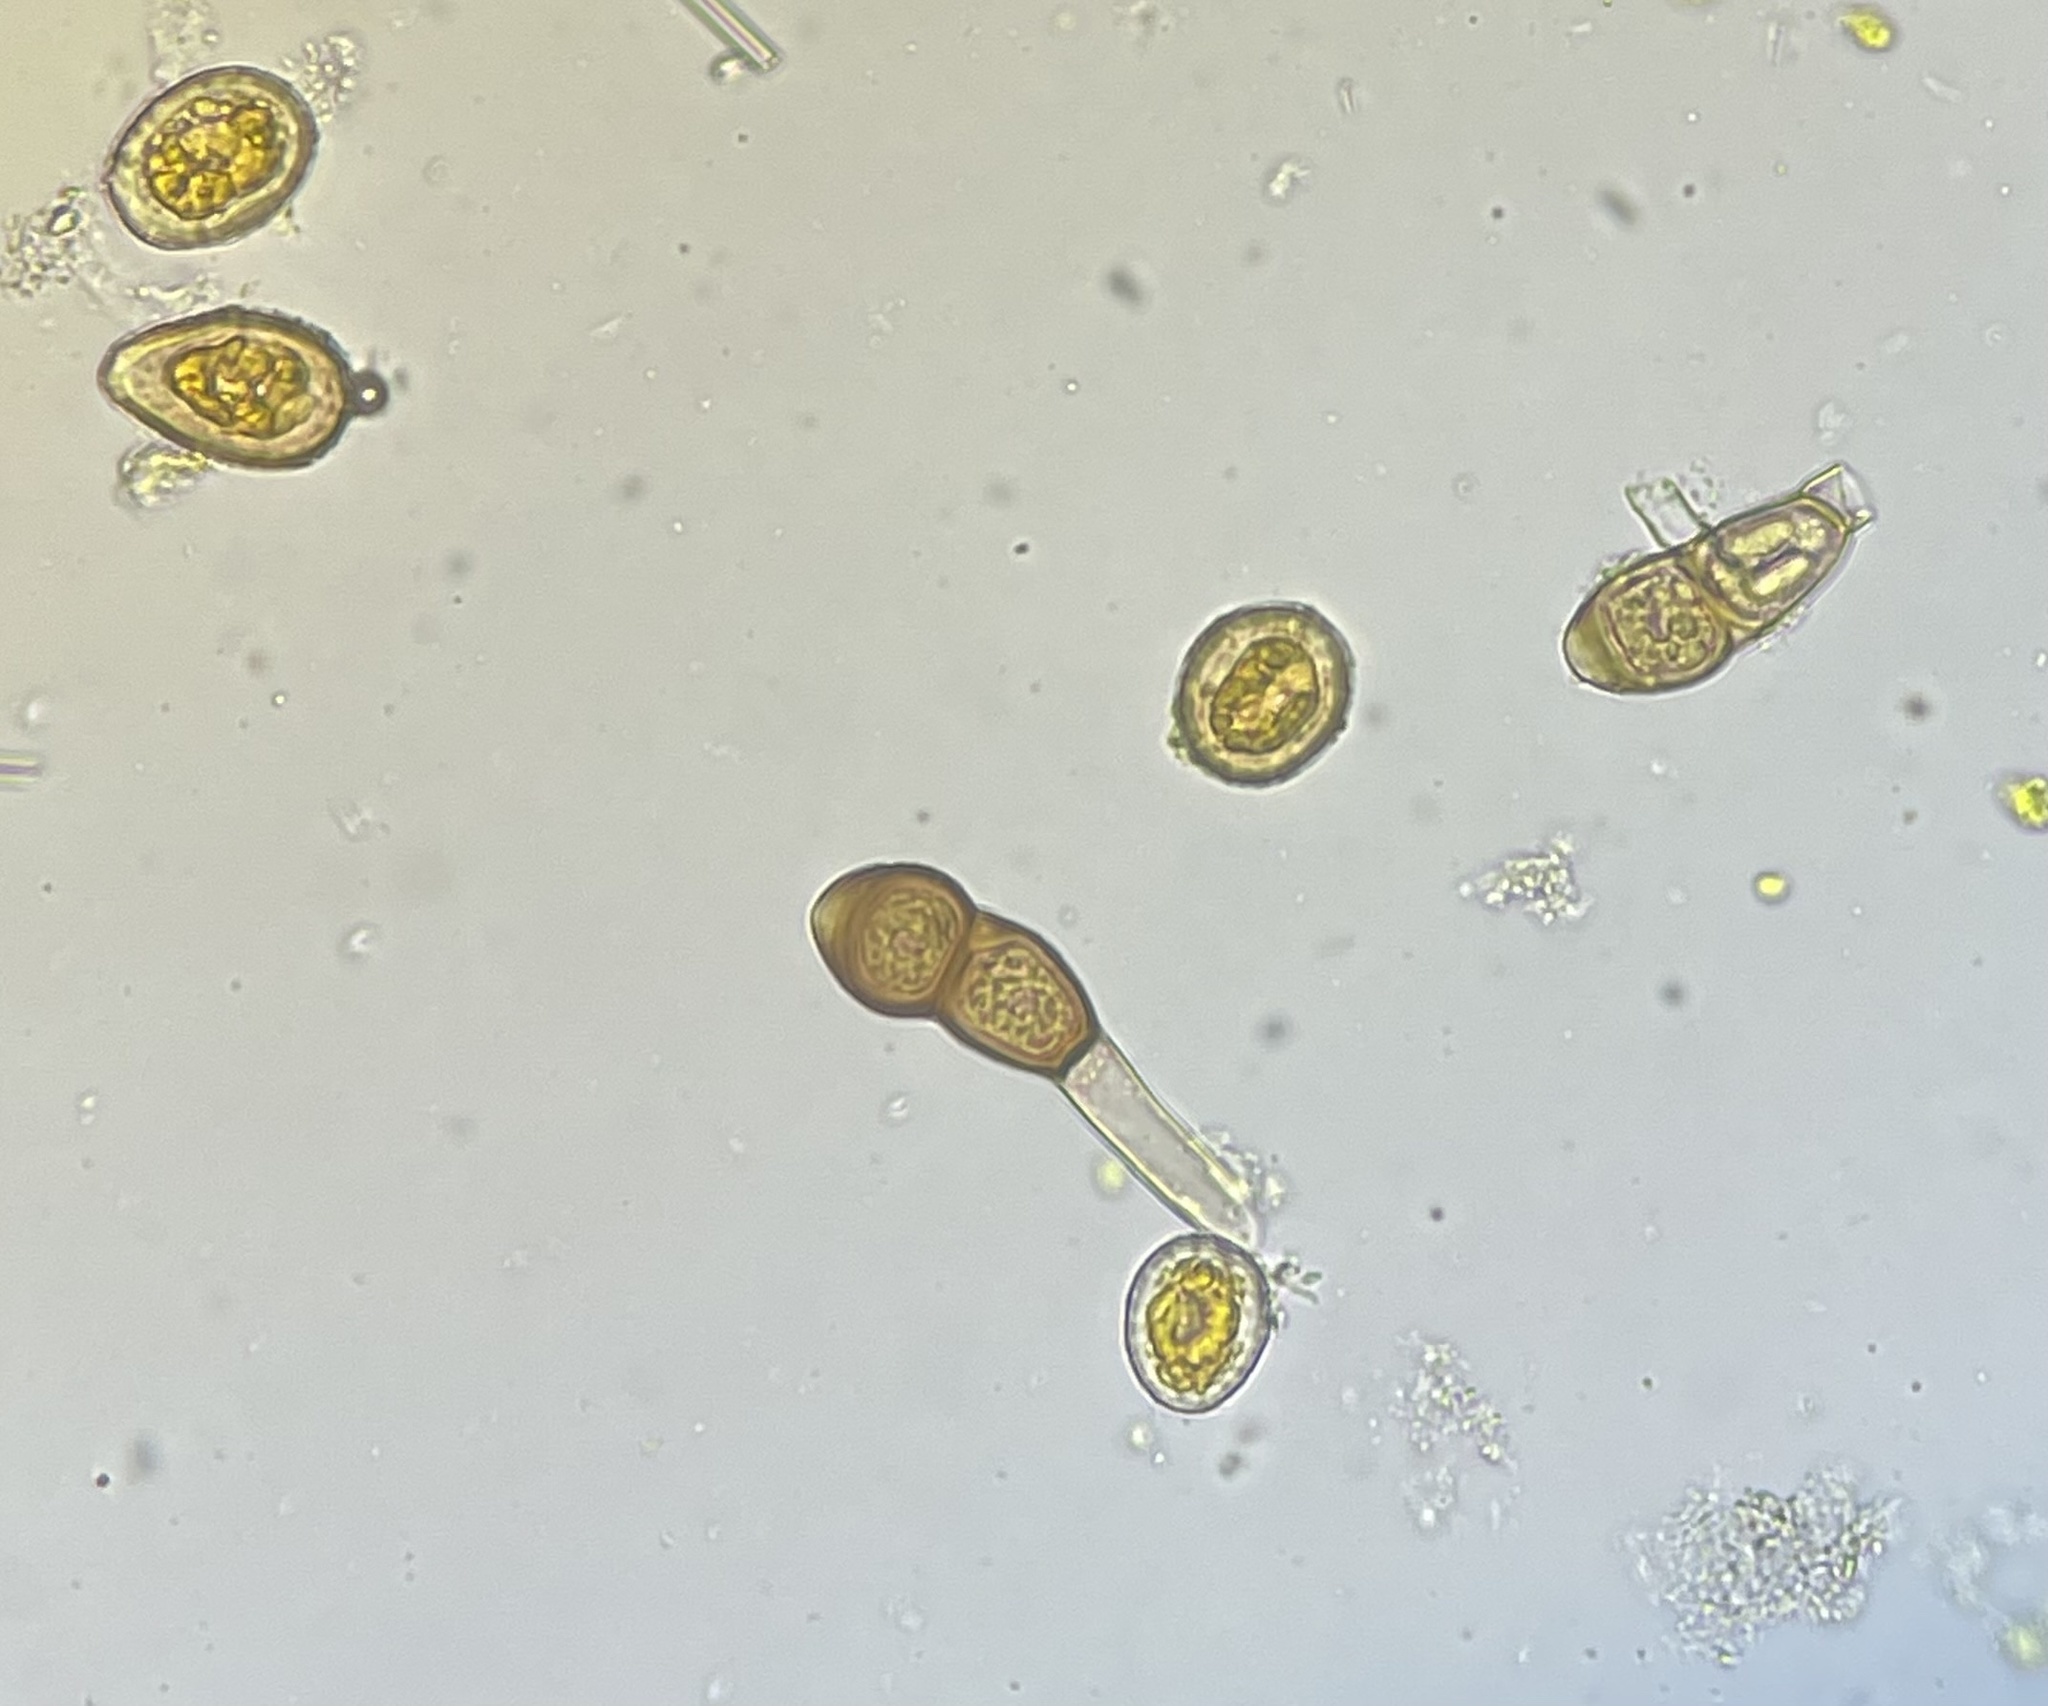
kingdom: Fungi
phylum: Basidiomycota
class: Pucciniomycetes
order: Pucciniales
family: Pucciniaceae
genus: Puccinia
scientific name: Puccinia smilacis
